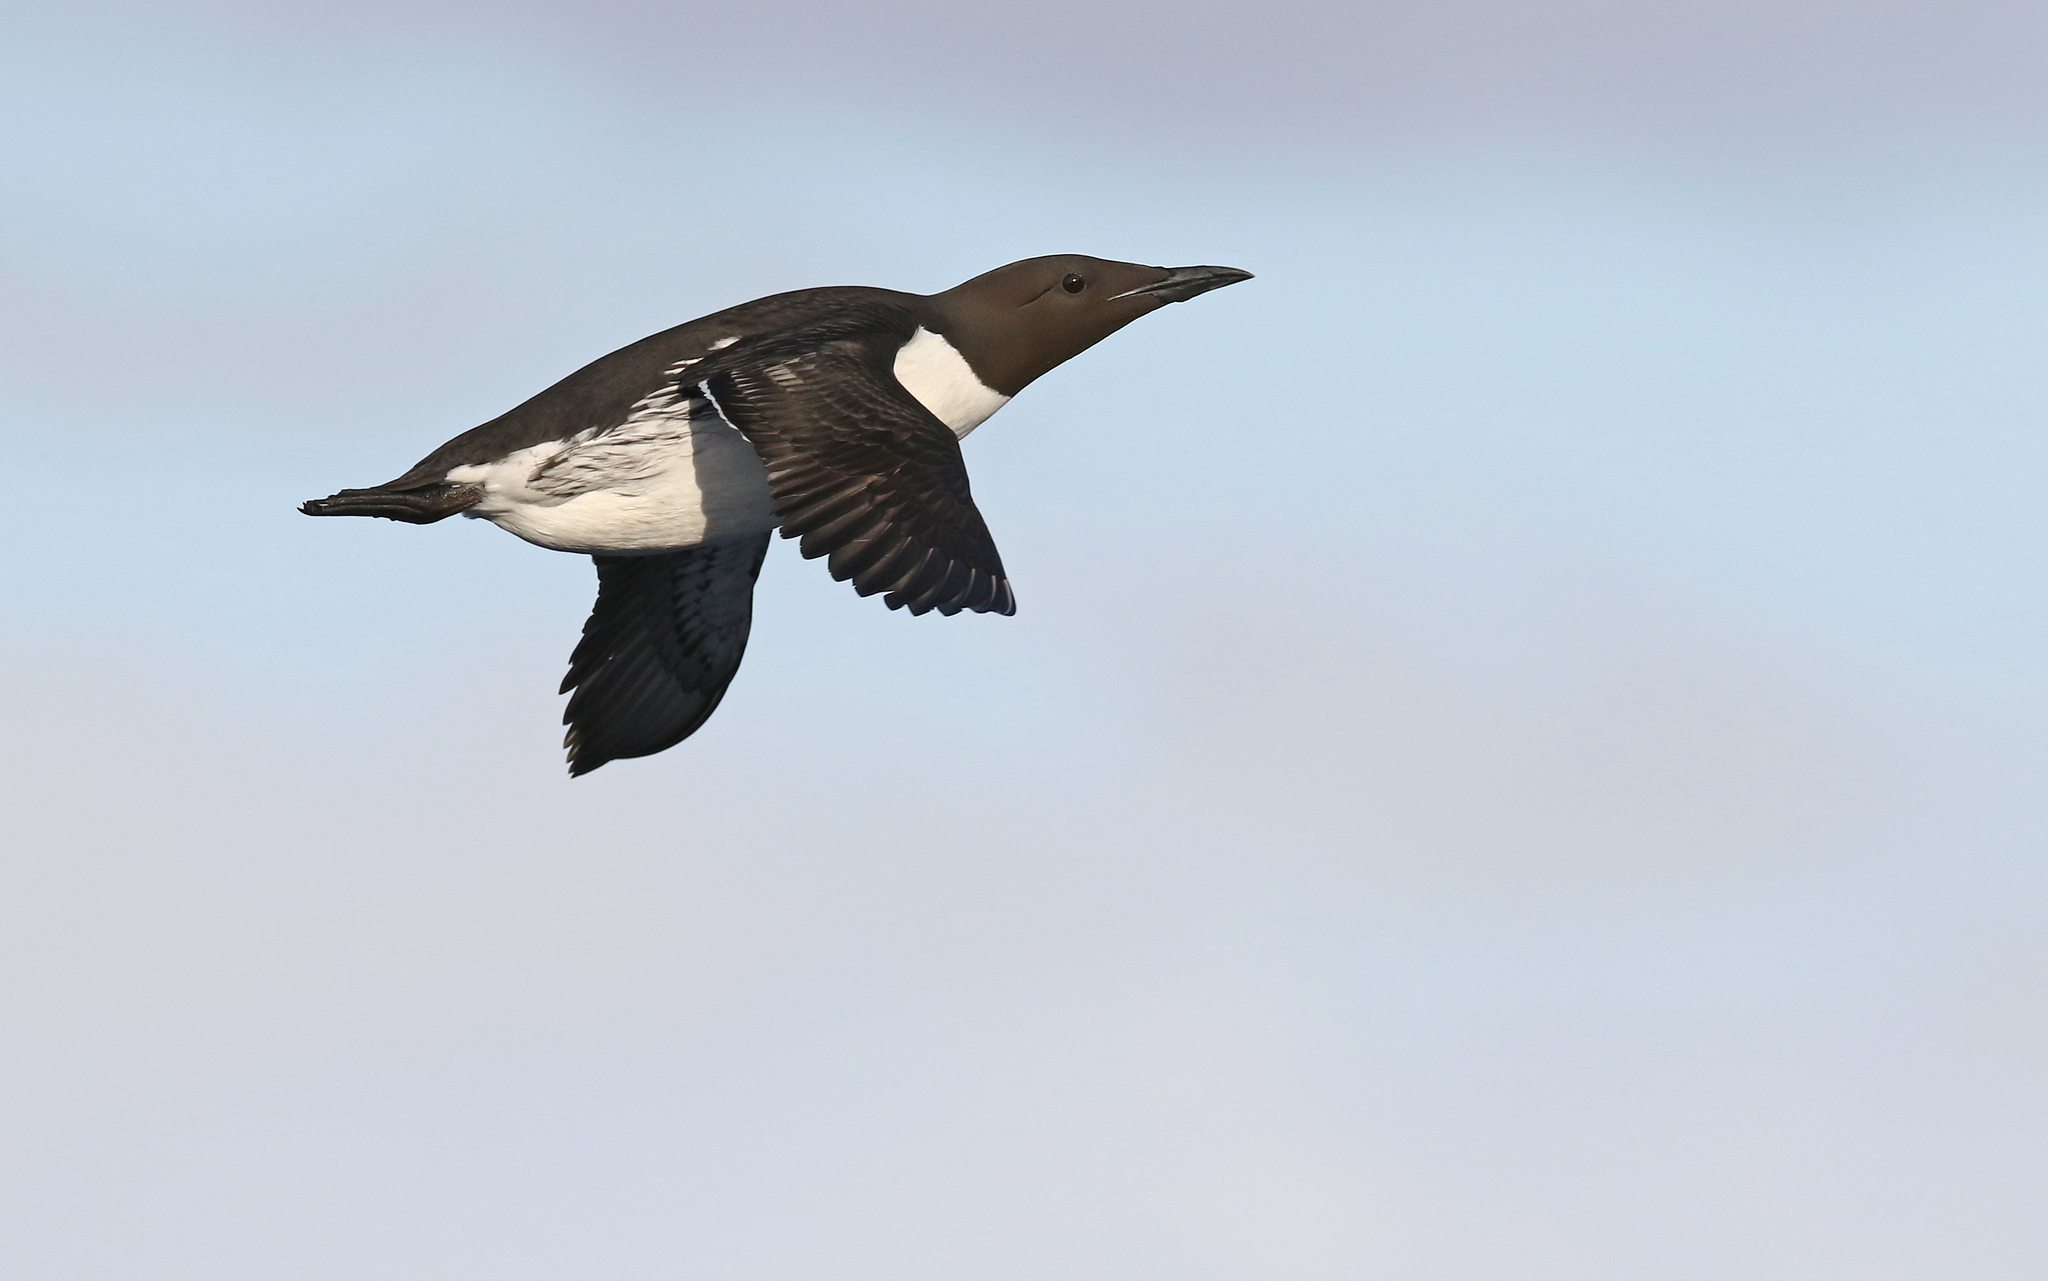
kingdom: Animalia
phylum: Chordata
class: Aves
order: Charadriiformes
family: Alcidae
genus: Uria
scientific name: Uria aalge
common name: Common murre
